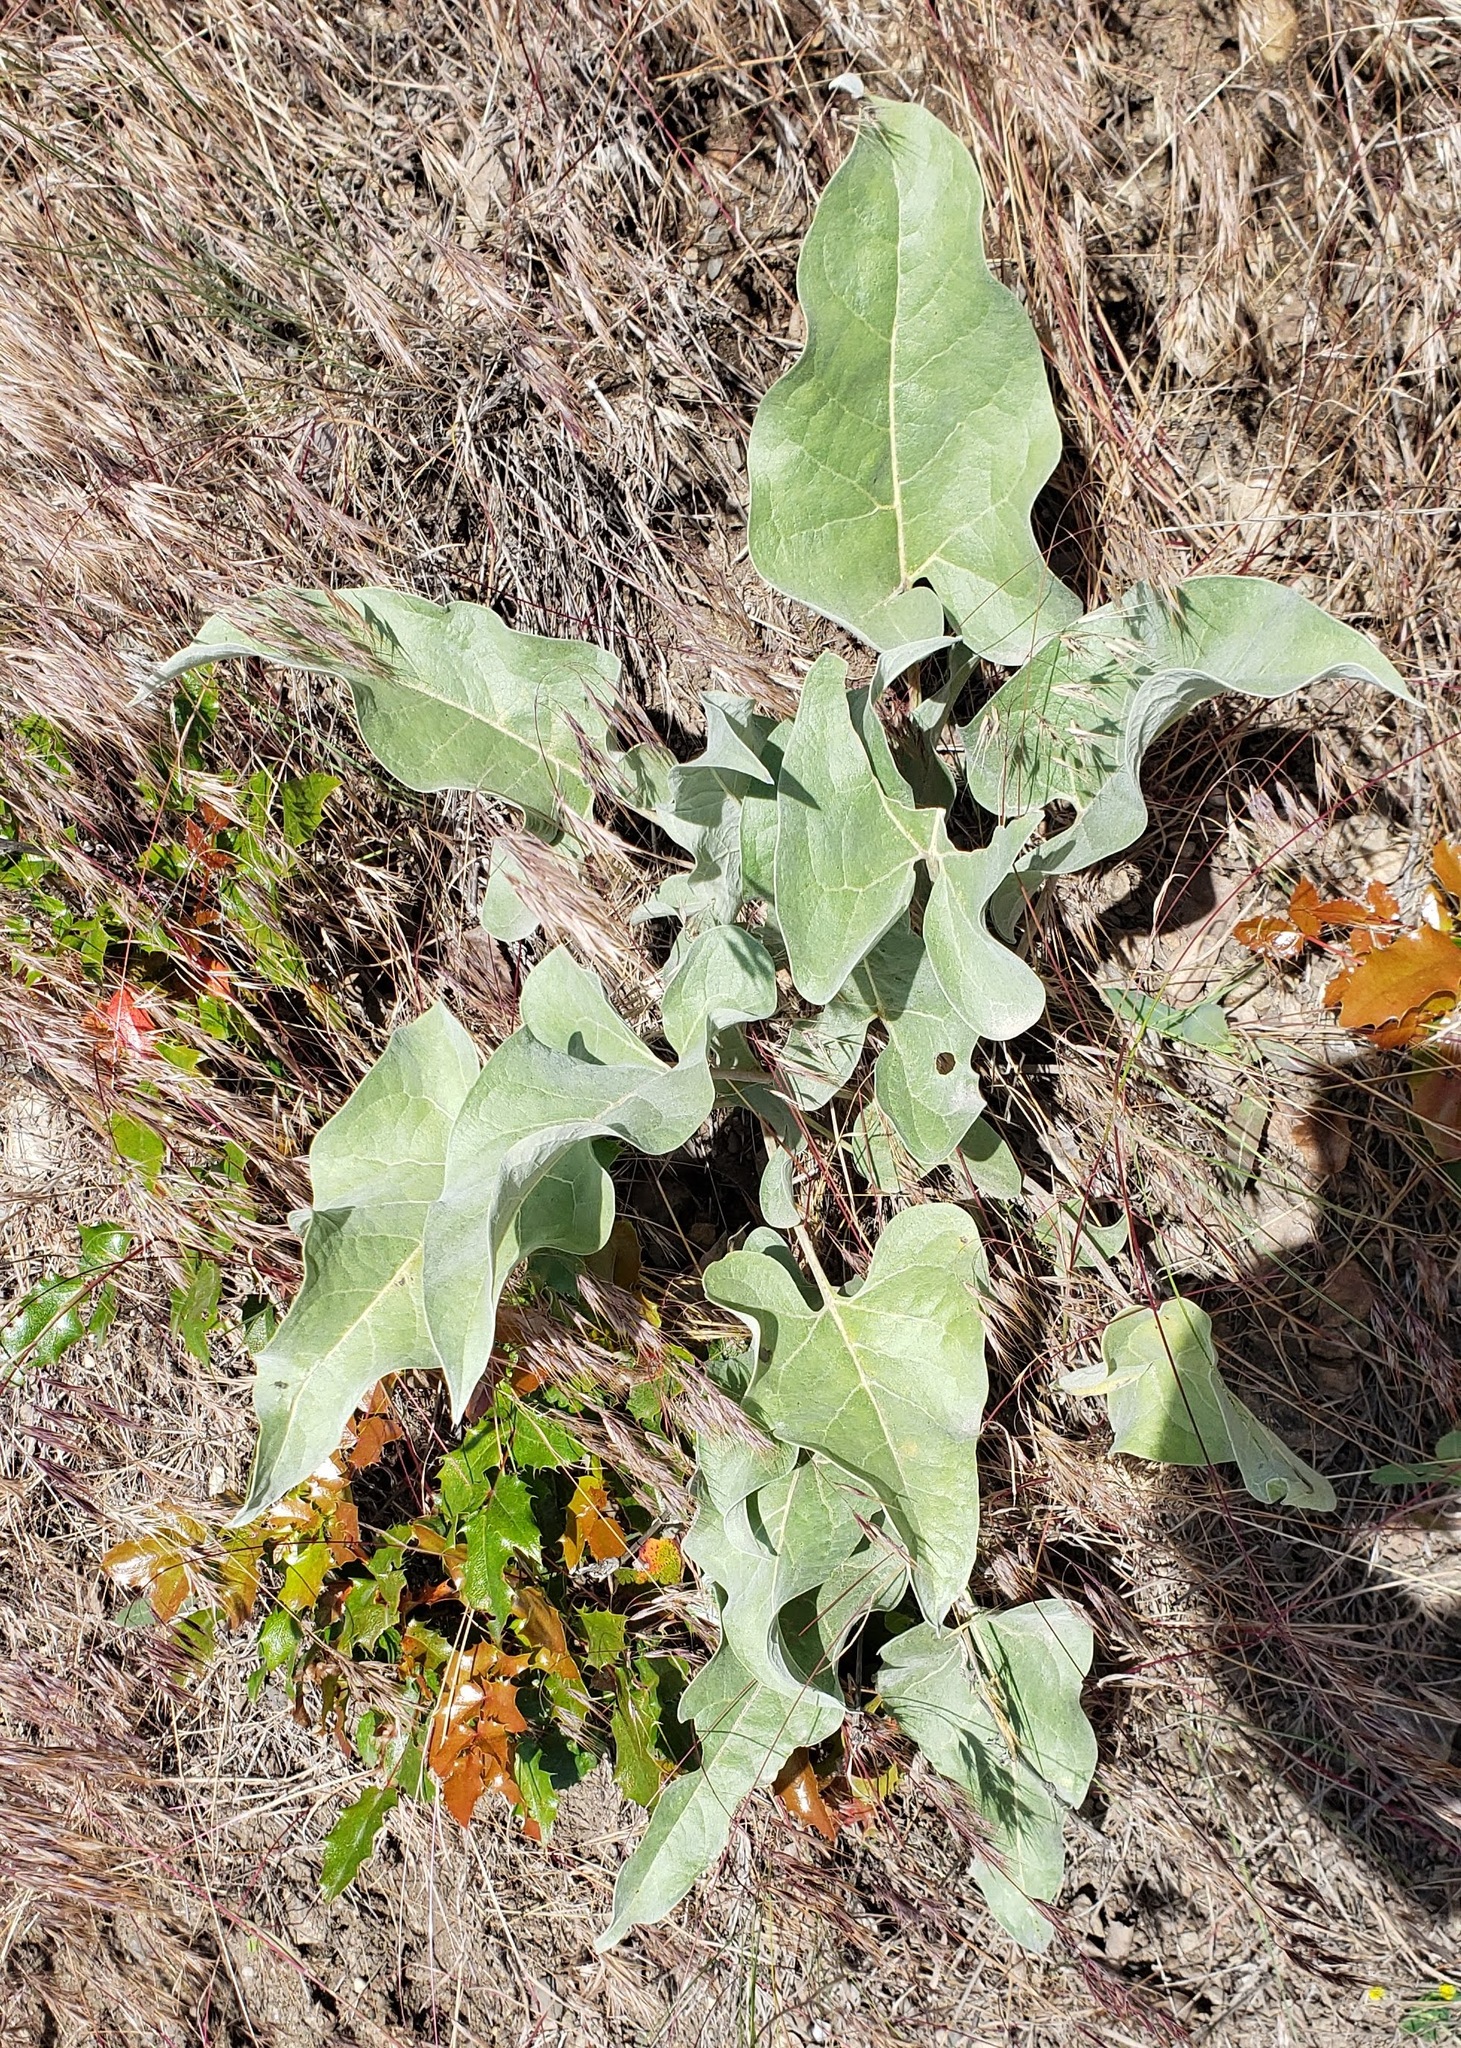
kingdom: Plantae
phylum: Tracheophyta
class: Magnoliopsida
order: Asterales
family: Asteraceae
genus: Wyethia
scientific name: Wyethia sagittata
